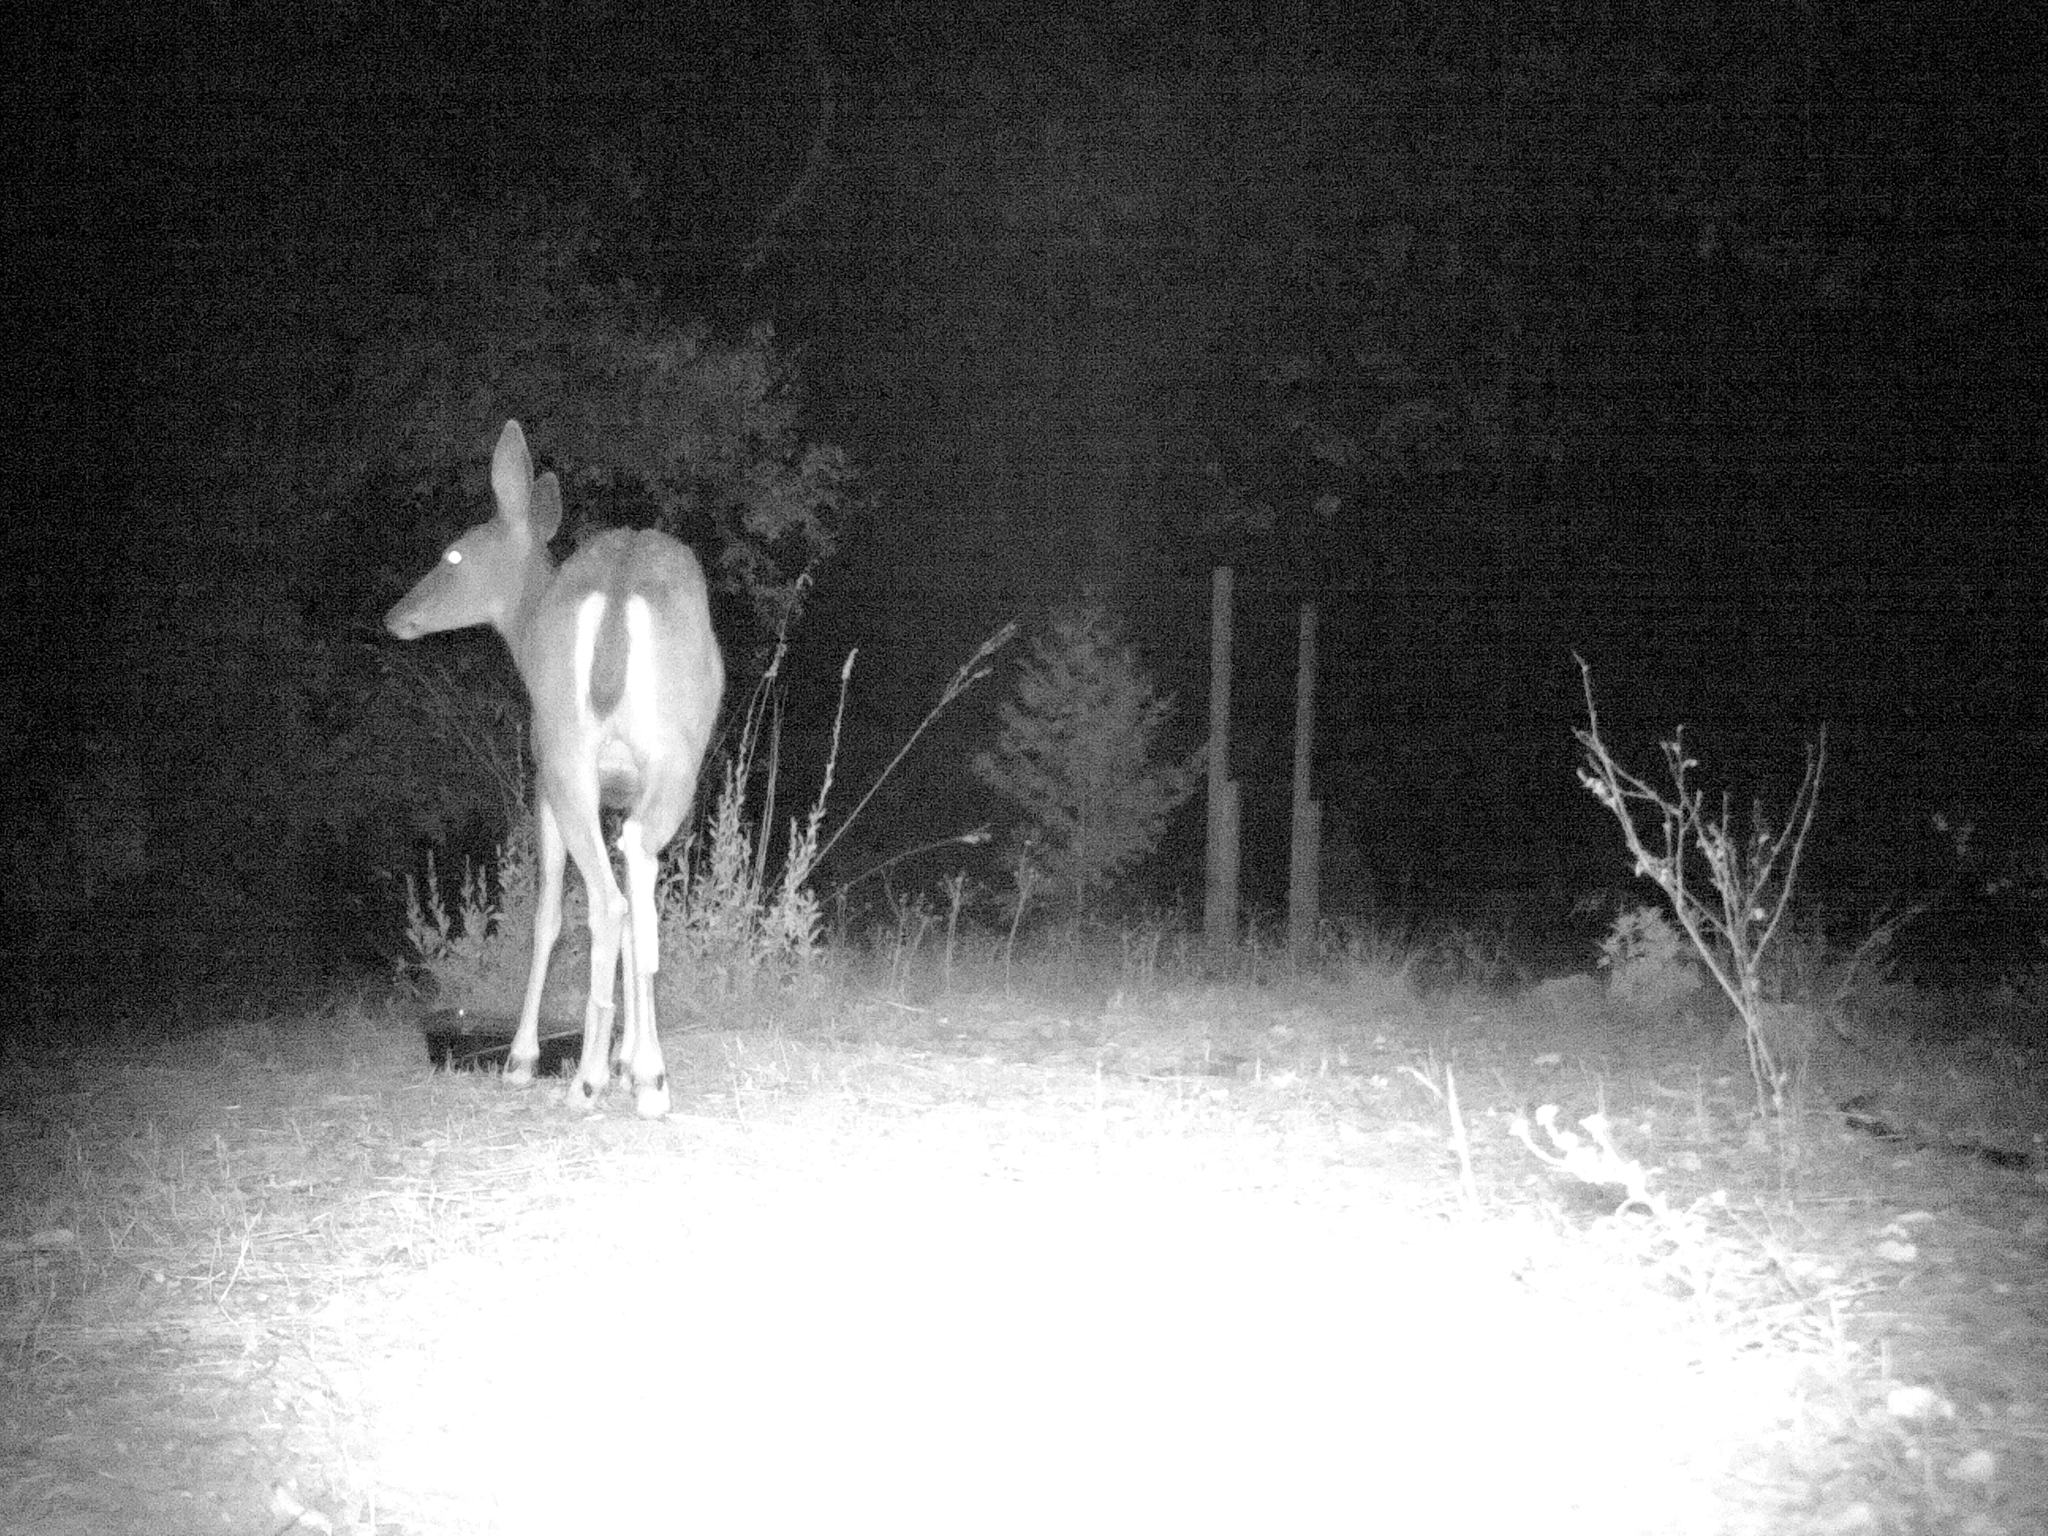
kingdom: Animalia
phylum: Chordata
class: Mammalia
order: Artiodactyla
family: Cervidae
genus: Odocoileus
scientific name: Odocoileus hemionus
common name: Mule deer
